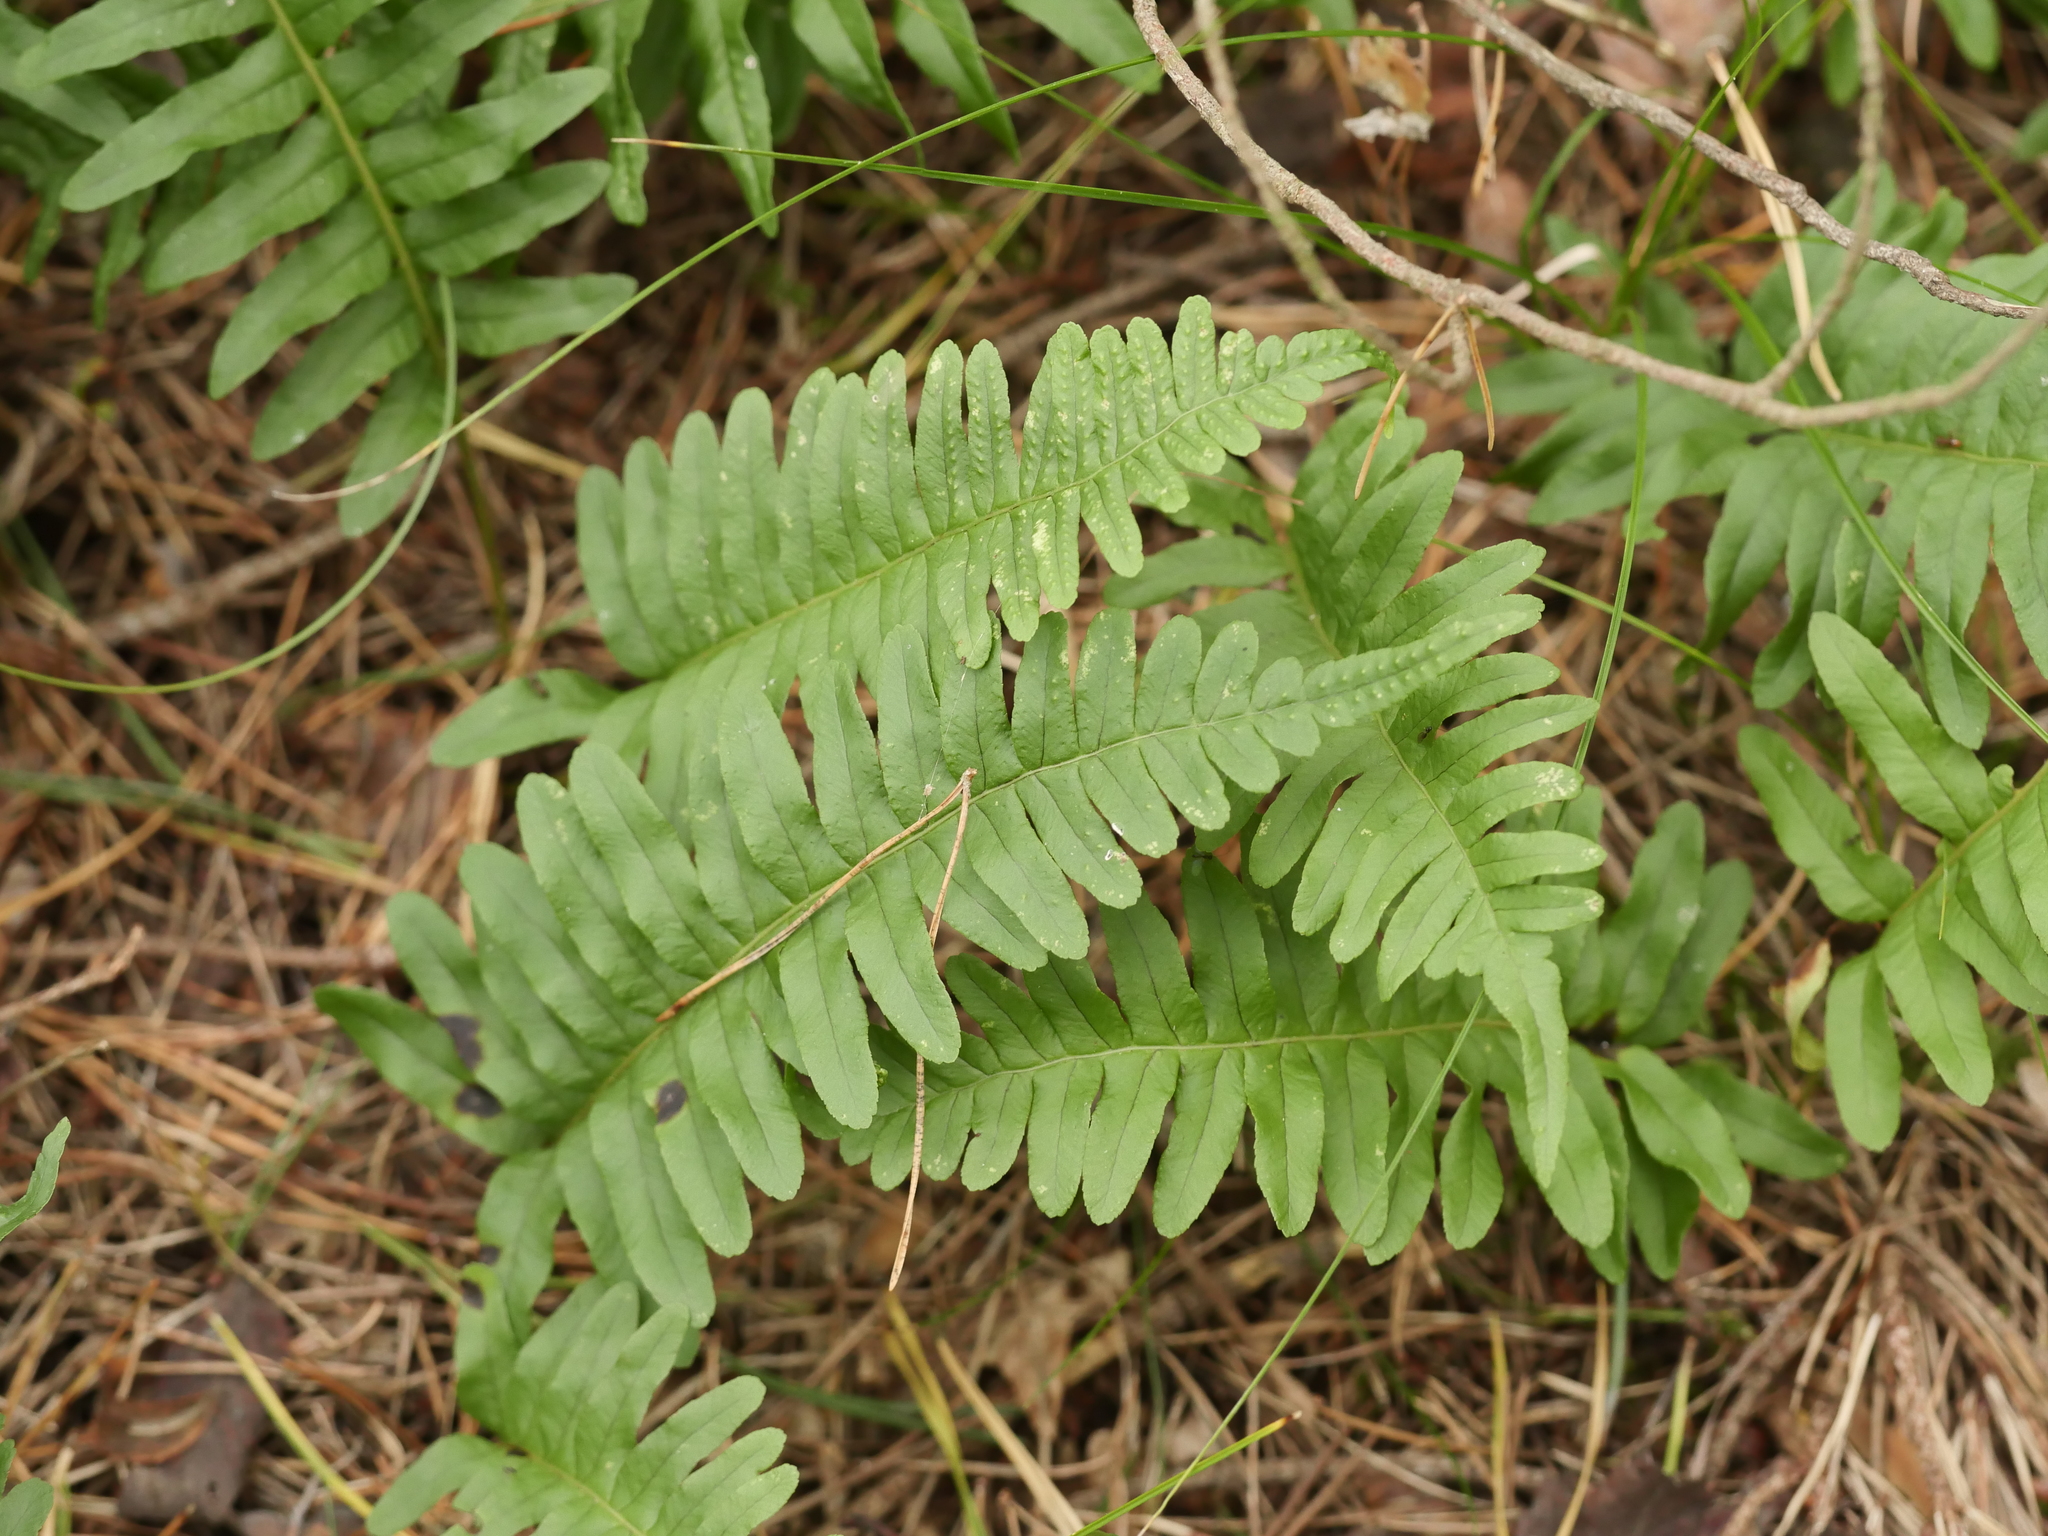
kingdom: Plantae
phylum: Tracheophyta
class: Polypodiopsida
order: Polypodiales
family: Polypodiaceae
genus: Polypodium
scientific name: Polypodium vulgare
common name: Common polypody
